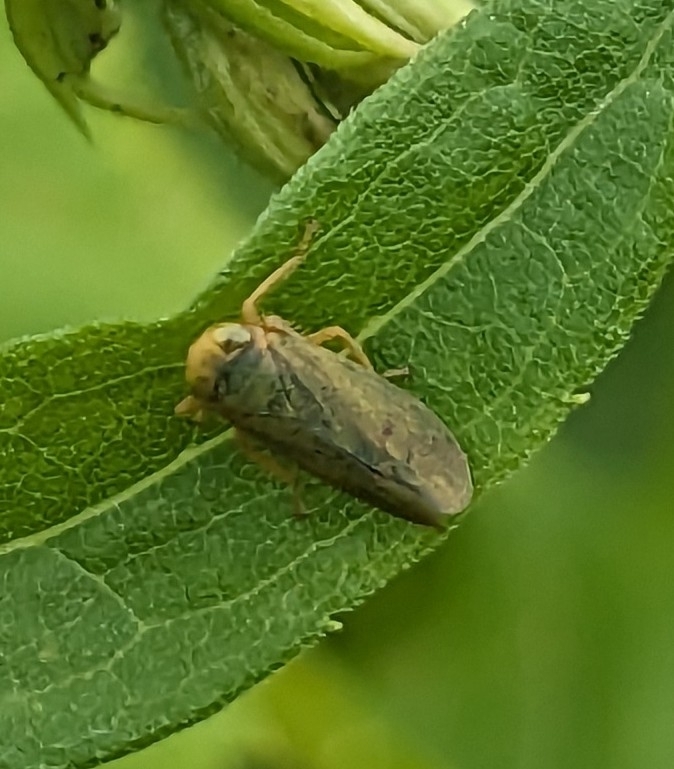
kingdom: Animalia
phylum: Arthropoda
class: Insecta
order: Hemiptera
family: Cicadellidae
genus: Jikradia
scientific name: Jikradia olitoria
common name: Coppery leafhopper
